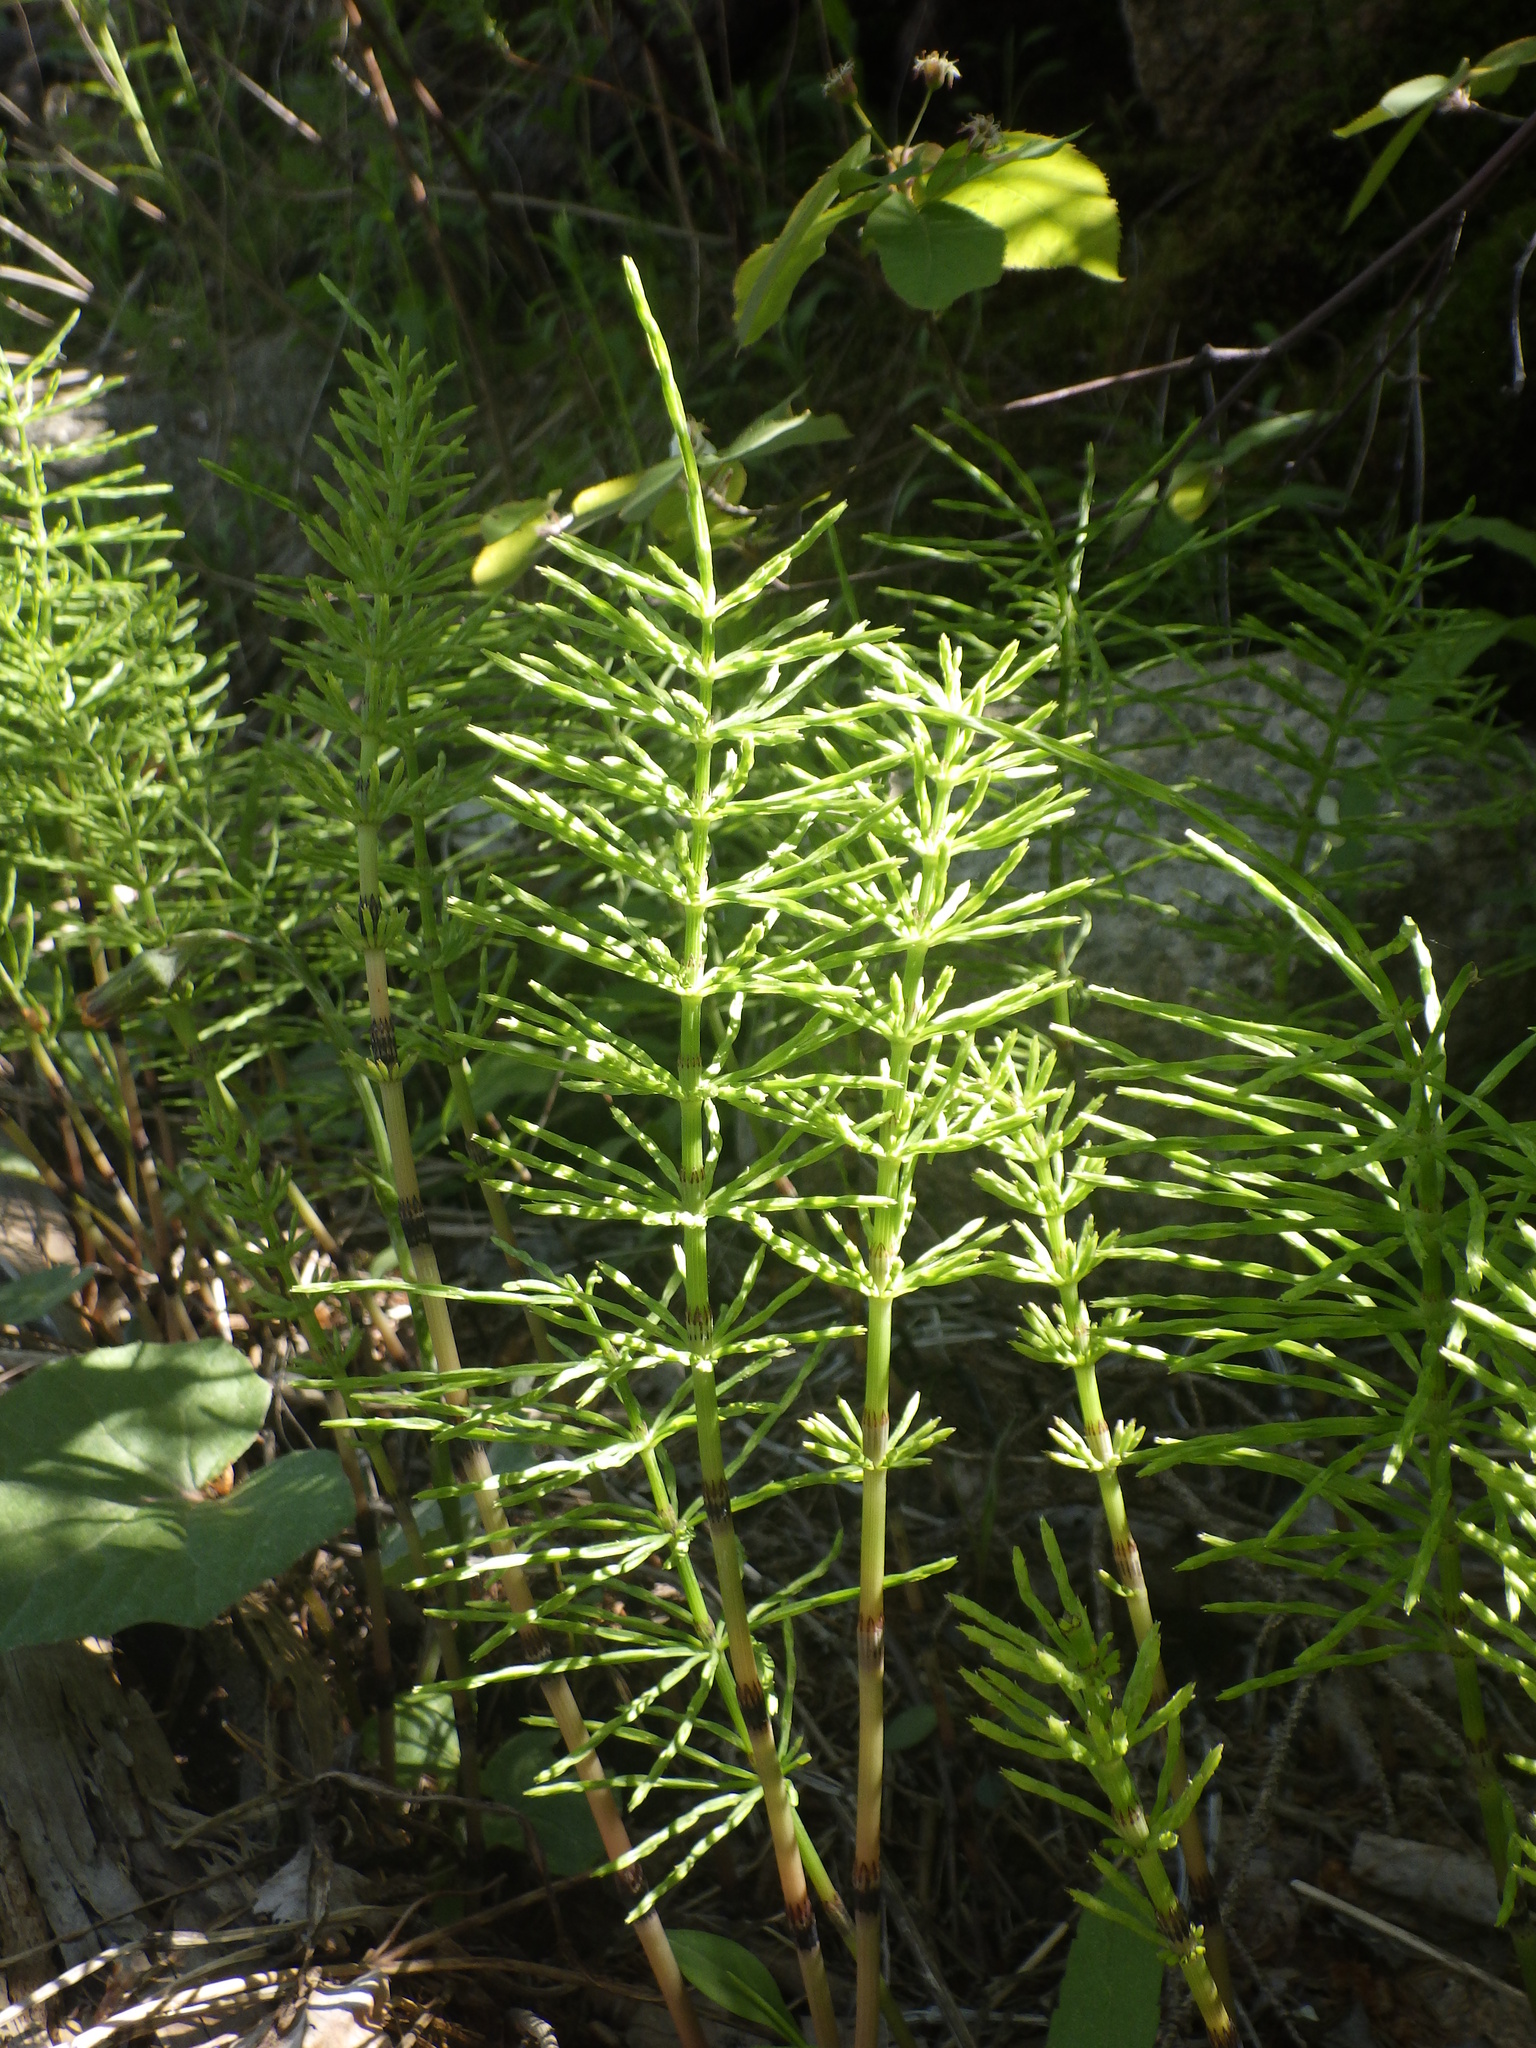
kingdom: Plantae
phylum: Tracheophyta
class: Polypodiopsida
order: Equisetales
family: Equisetaceae
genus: Equisetum
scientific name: Equisetum arvense
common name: Field horsetail
